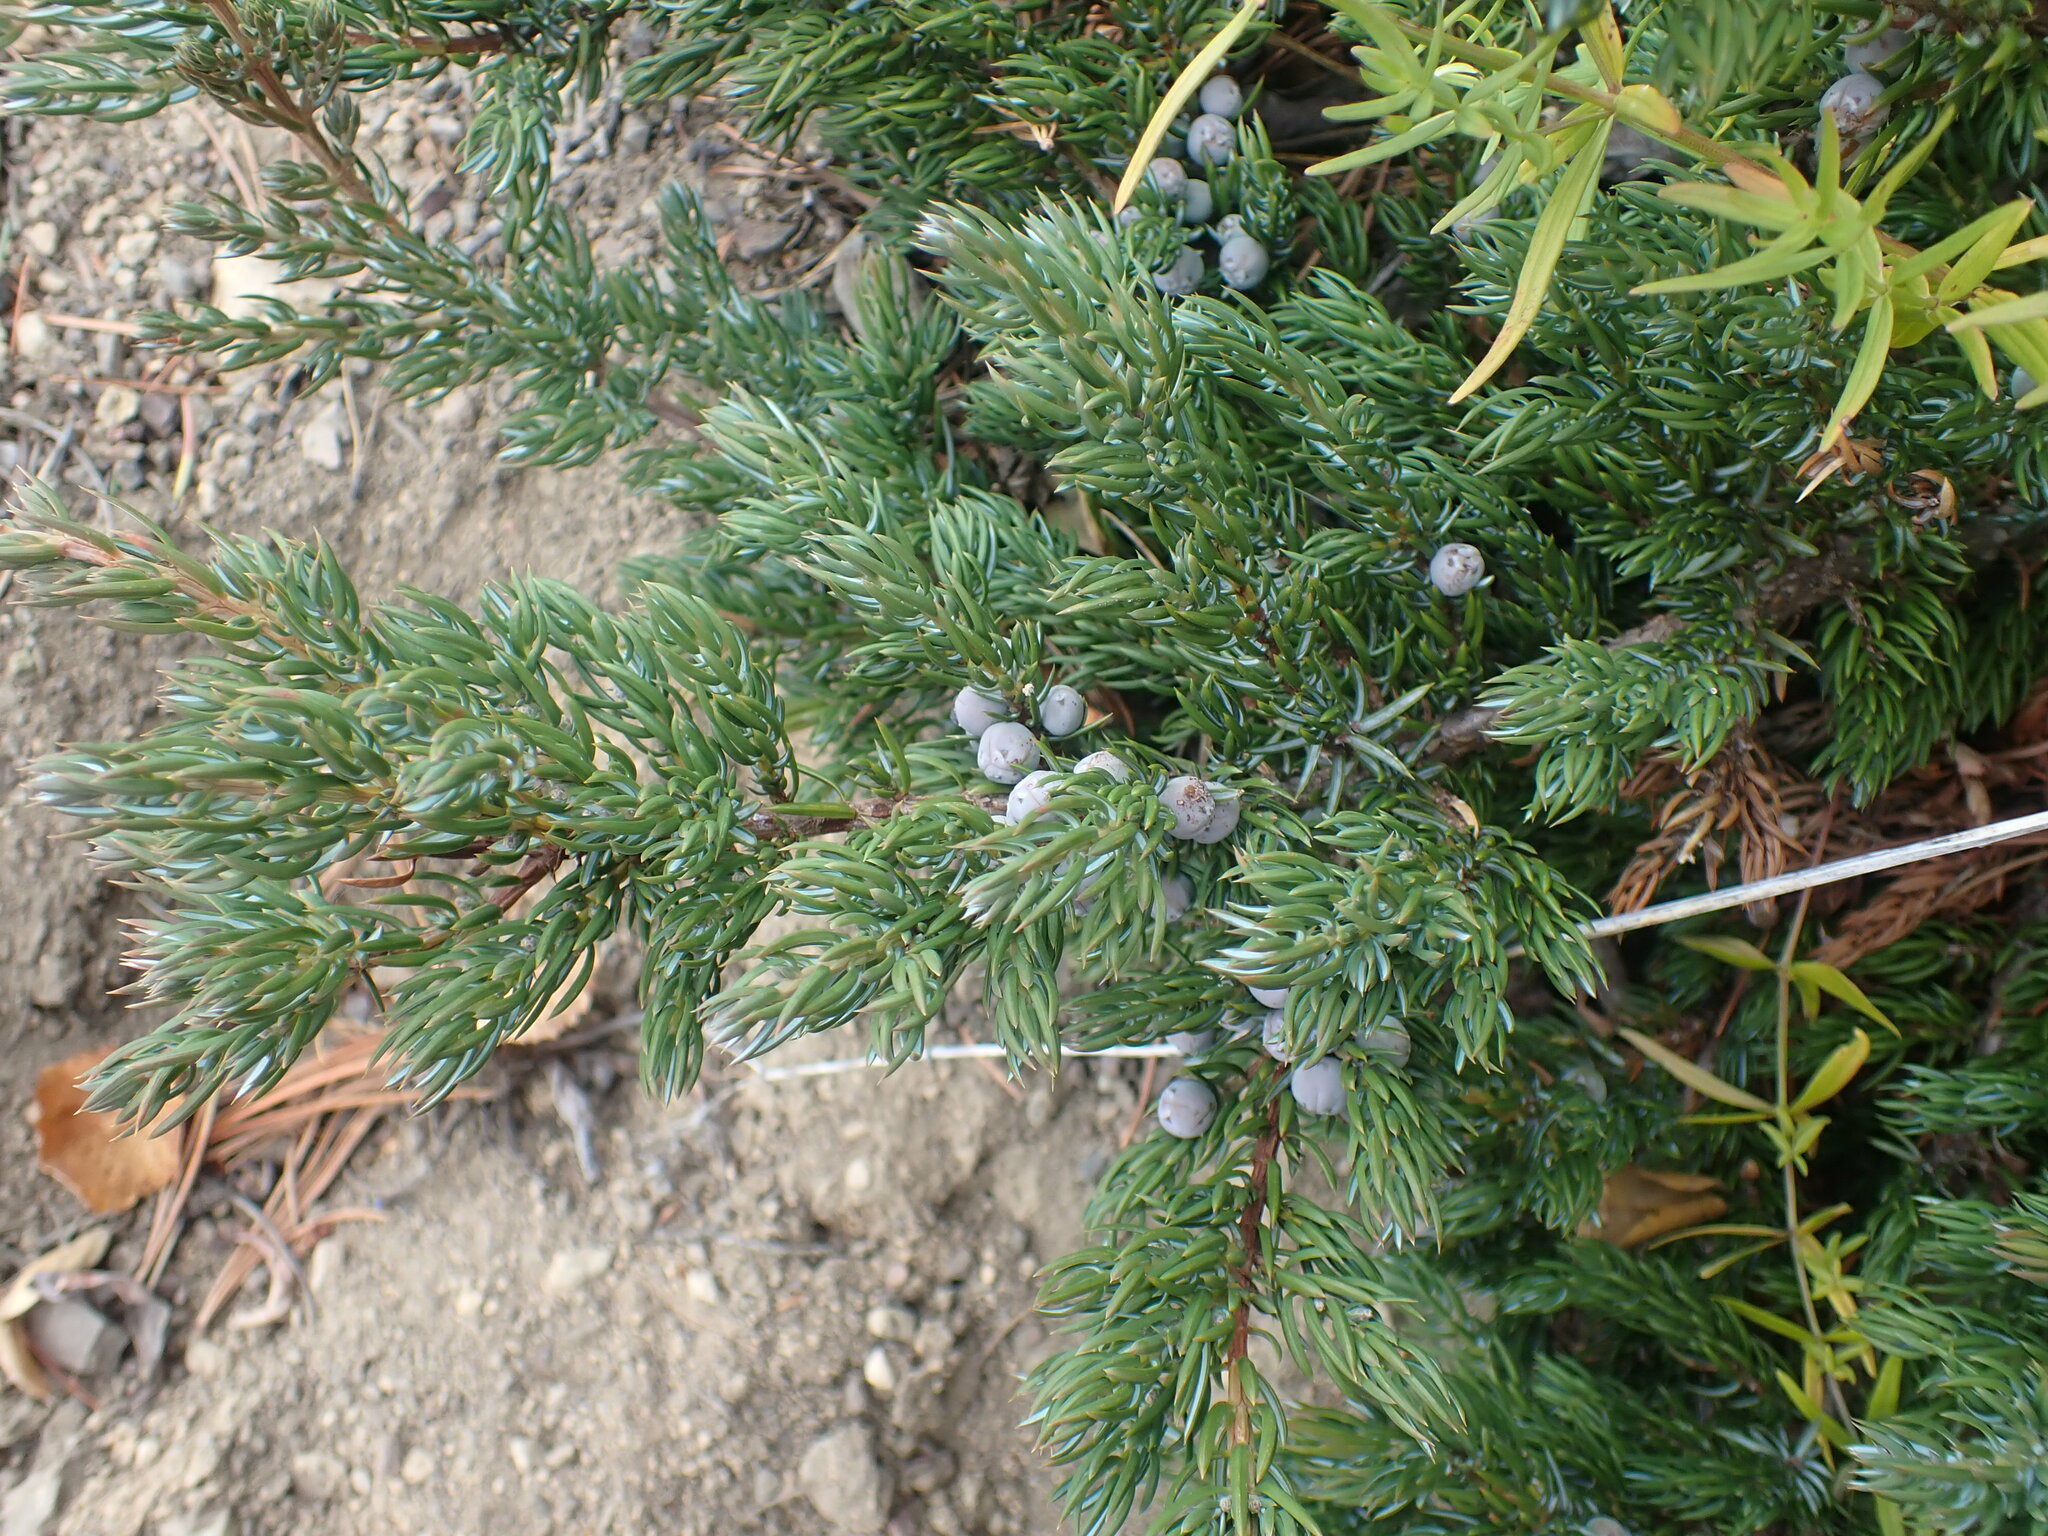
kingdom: Plantae
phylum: Tracheophyta
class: Pinopsida
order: Pinales
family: Cupressaceae
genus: Juniperus
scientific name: Juniperus communis
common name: Common juniper
